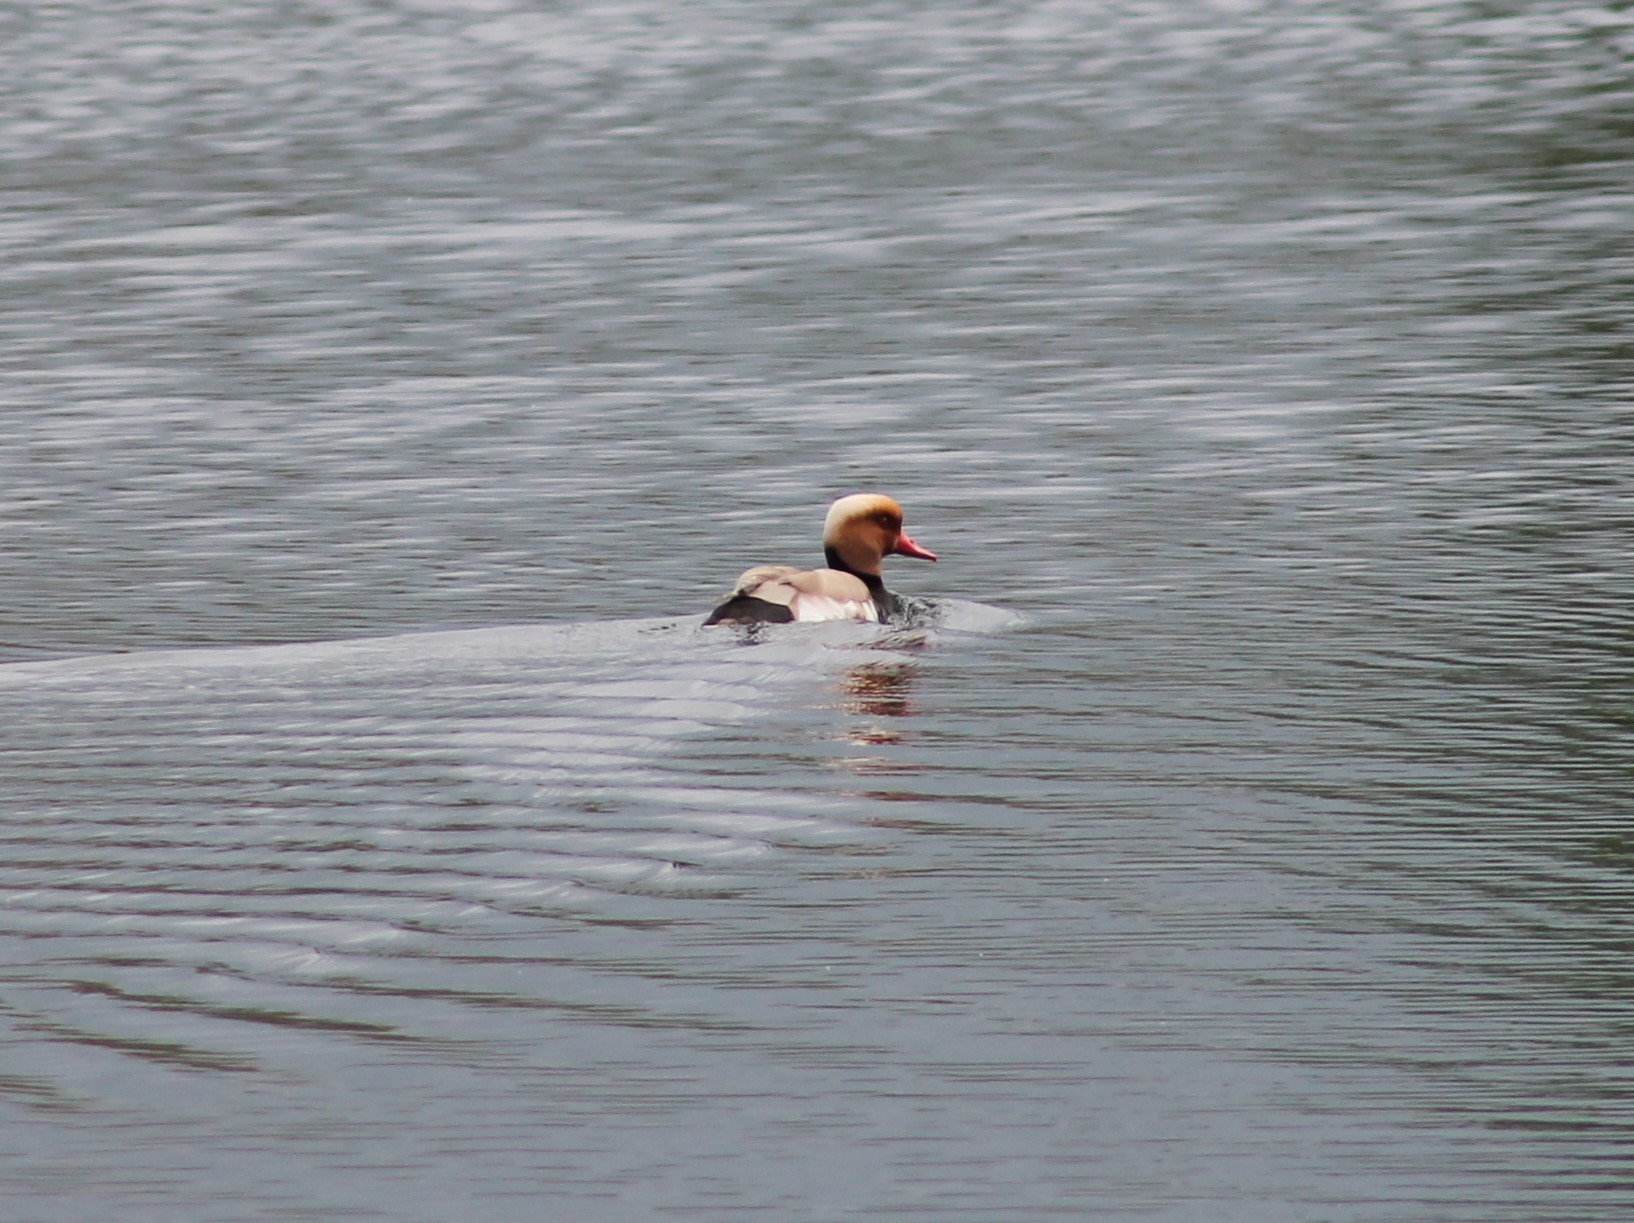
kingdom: Animalia
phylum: Chordata
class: Aves
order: Anseriformes
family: Anatidae
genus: Netta
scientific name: Netta rufina
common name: Red-crested pochard
